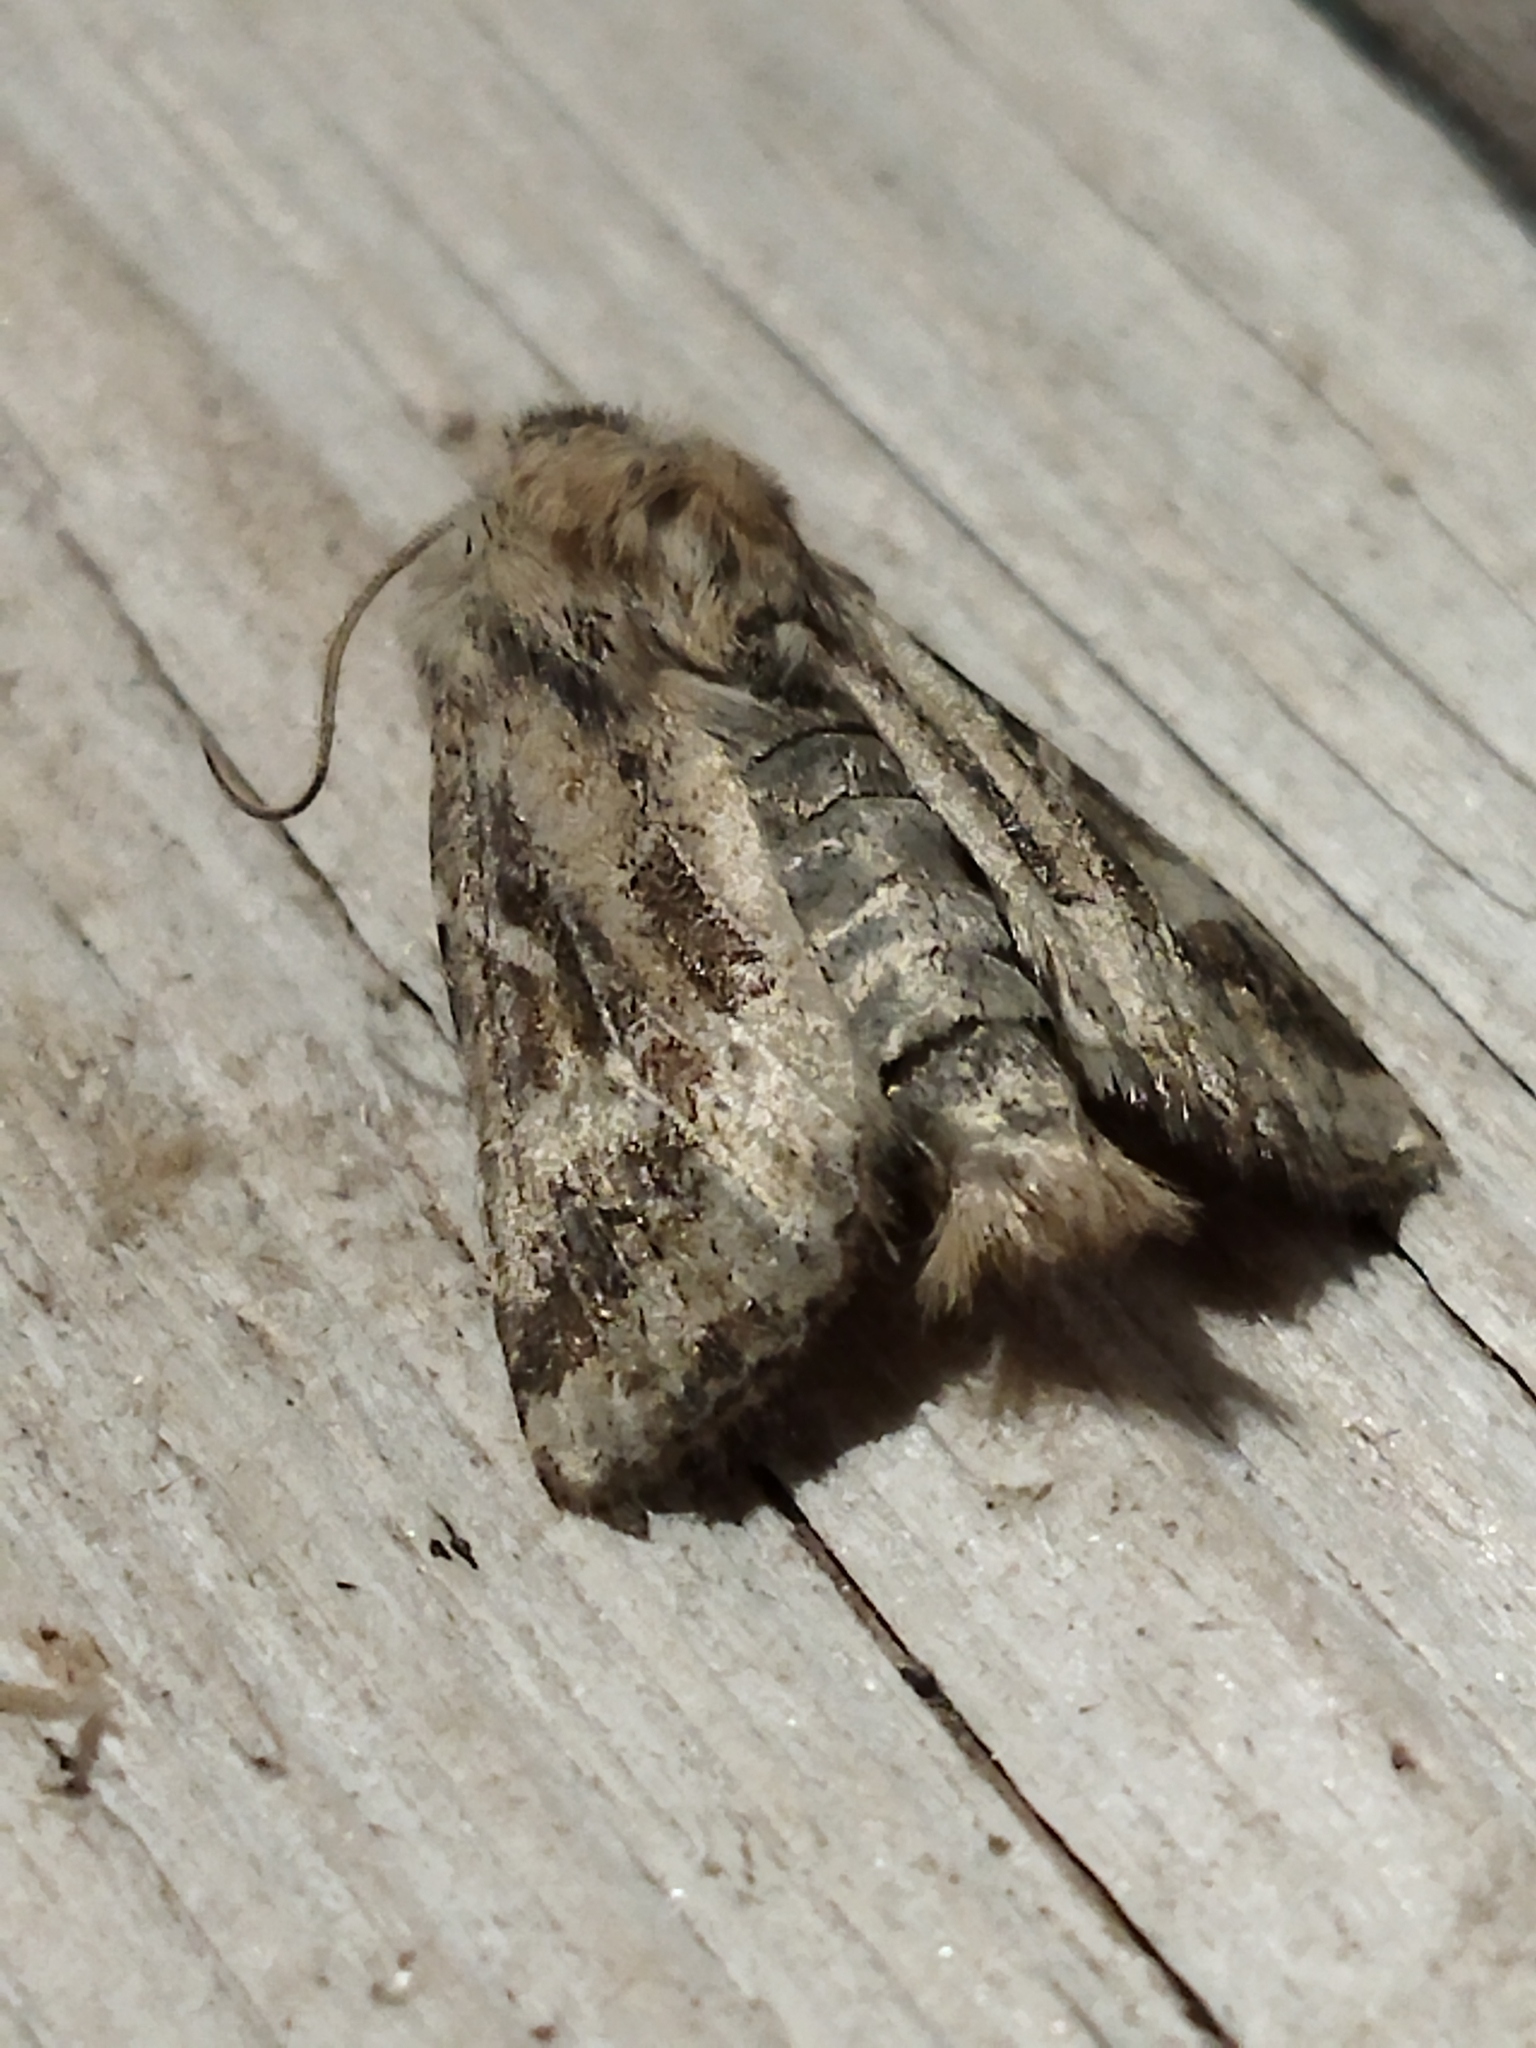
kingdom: Animalia
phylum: Arthropoda
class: Insecta
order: Lepidoptera
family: Noctuidae
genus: Luperina
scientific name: Luperina dumerilii
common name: Dumeril's rustic
